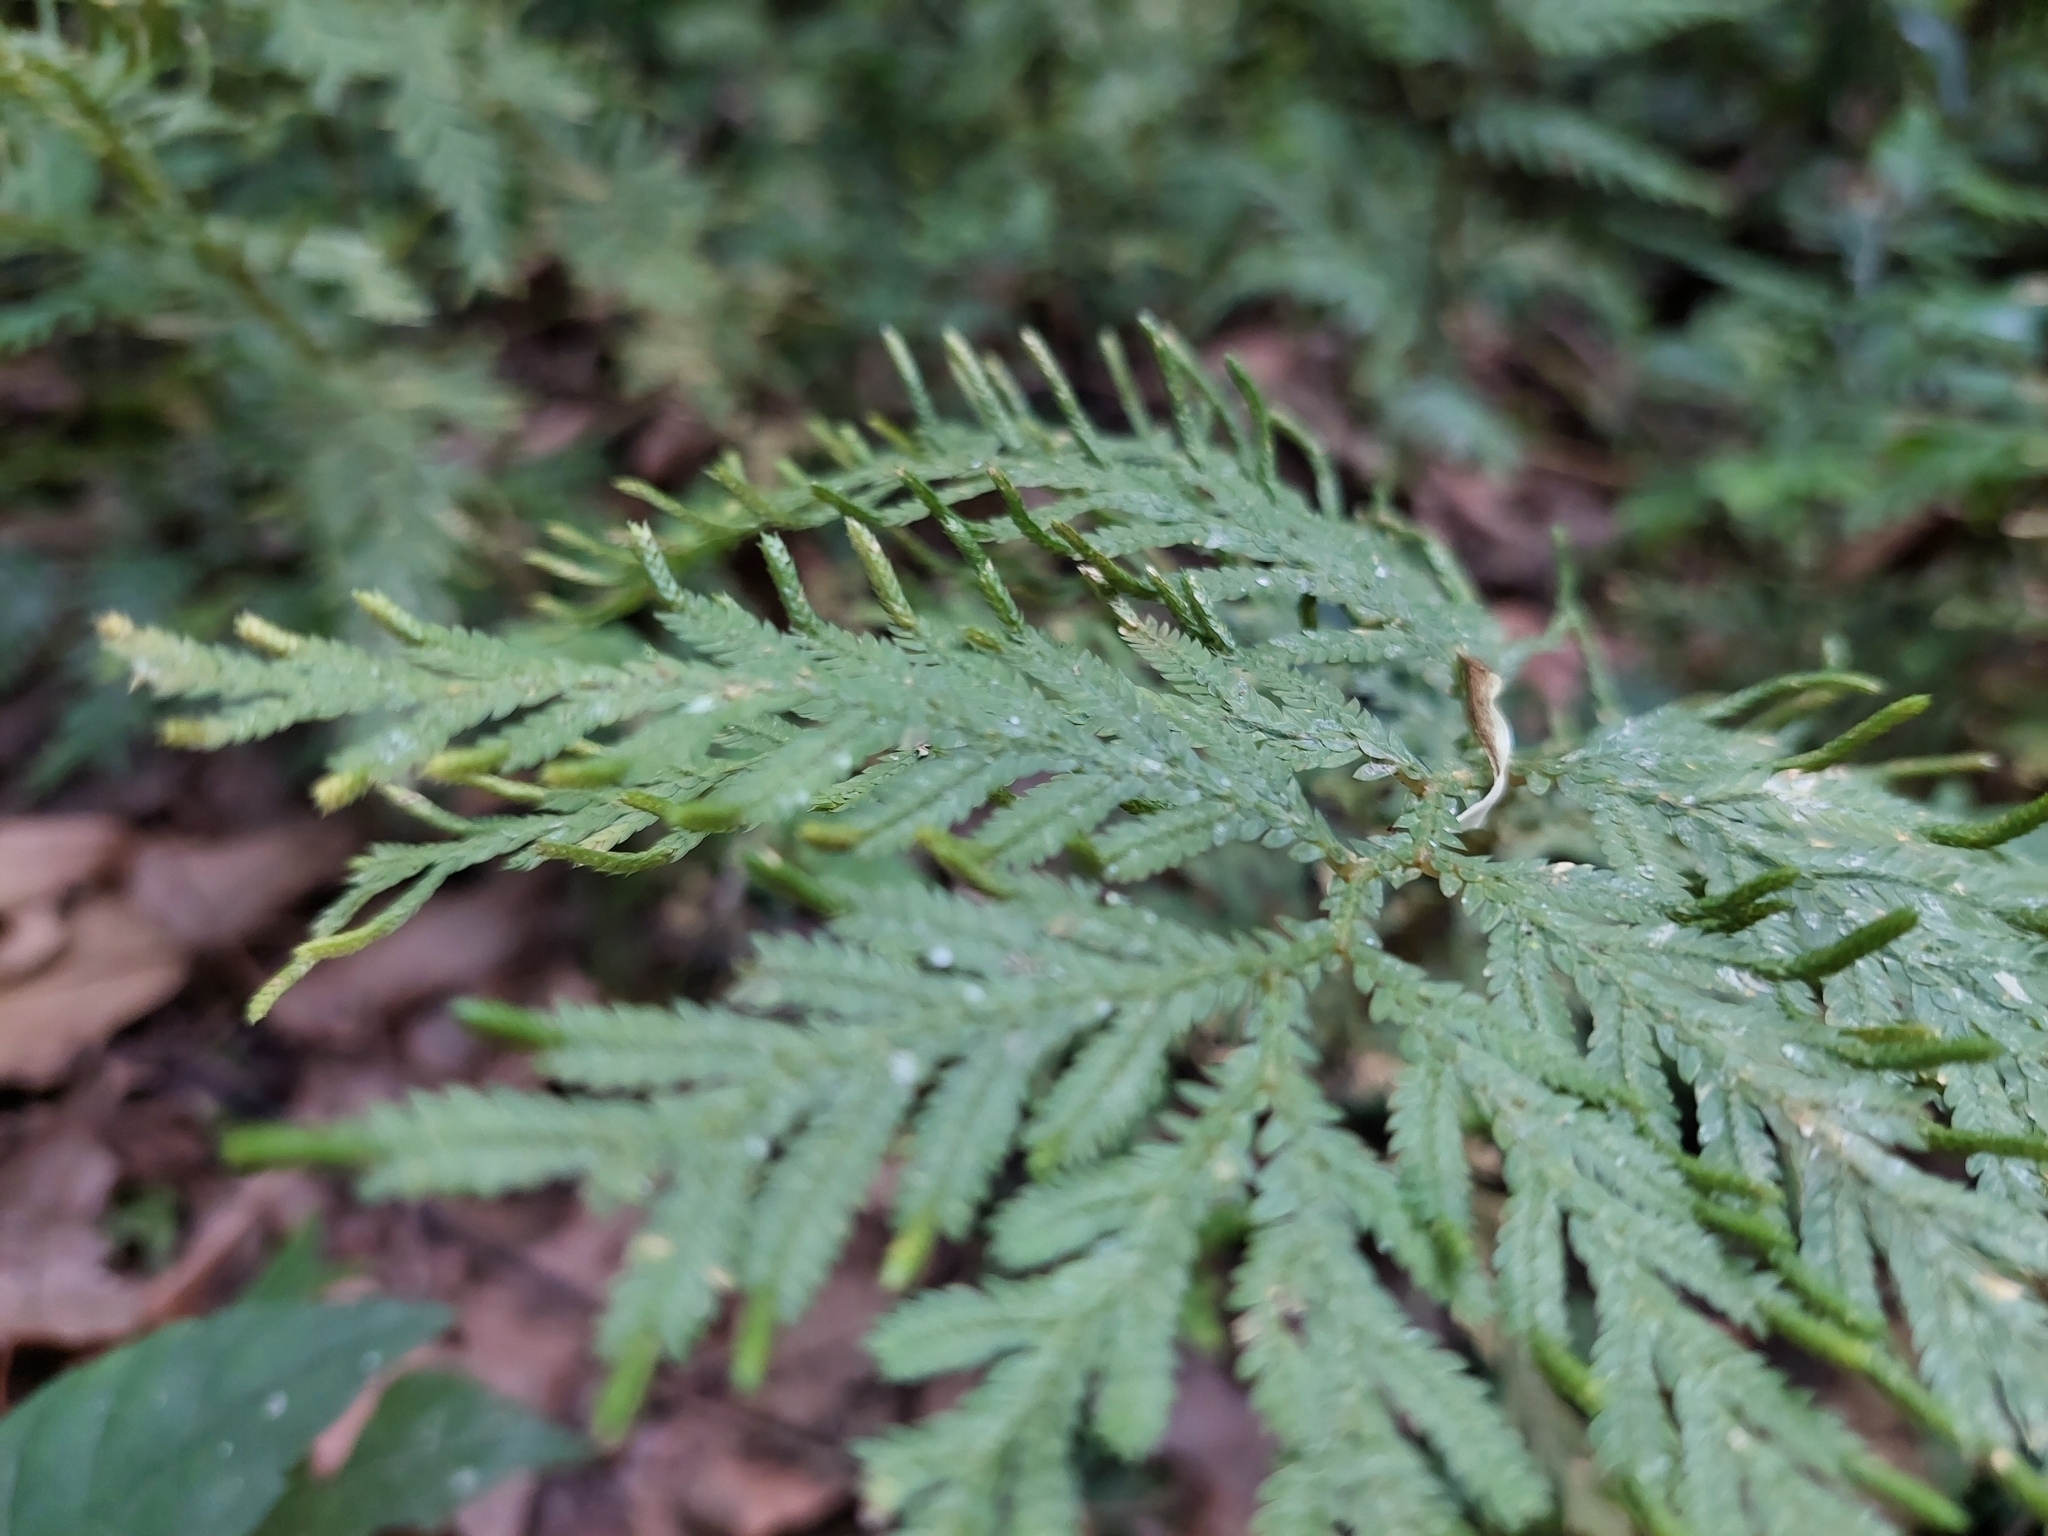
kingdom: Plantae
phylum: Tracheophyta
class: Lycopodiopsida
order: Selaginellales
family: Selaginellaceae
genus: Selaginella
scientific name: Selaginella delicatula
